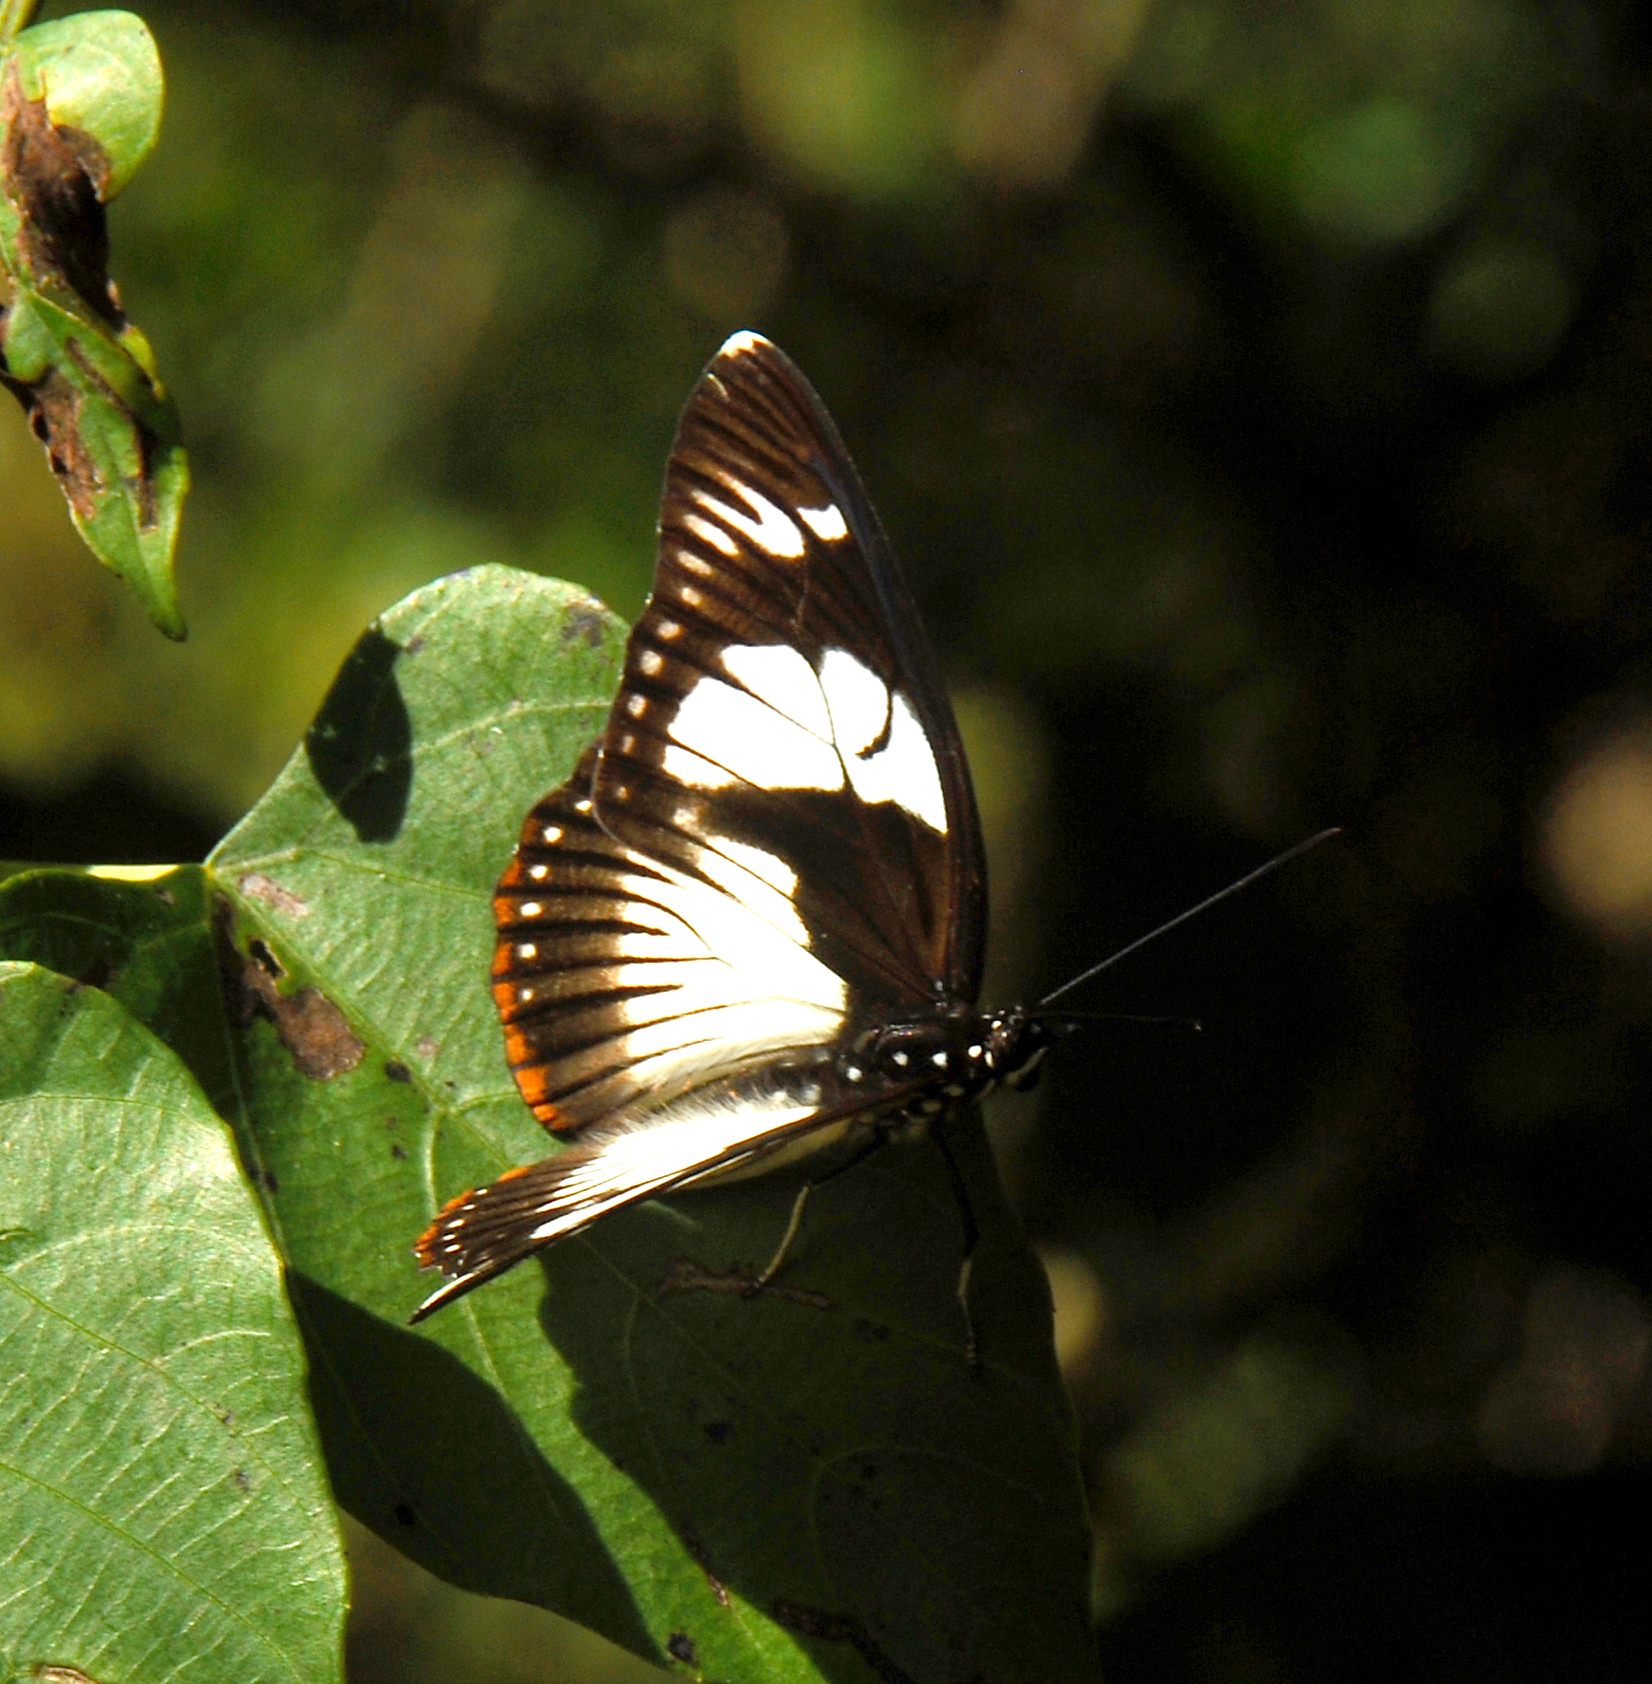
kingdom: Animalia
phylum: Arthropoda
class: Insecta
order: Lepidoptera
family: Nymphalidae
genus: Chloropoea
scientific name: Chloropoea lucretia
